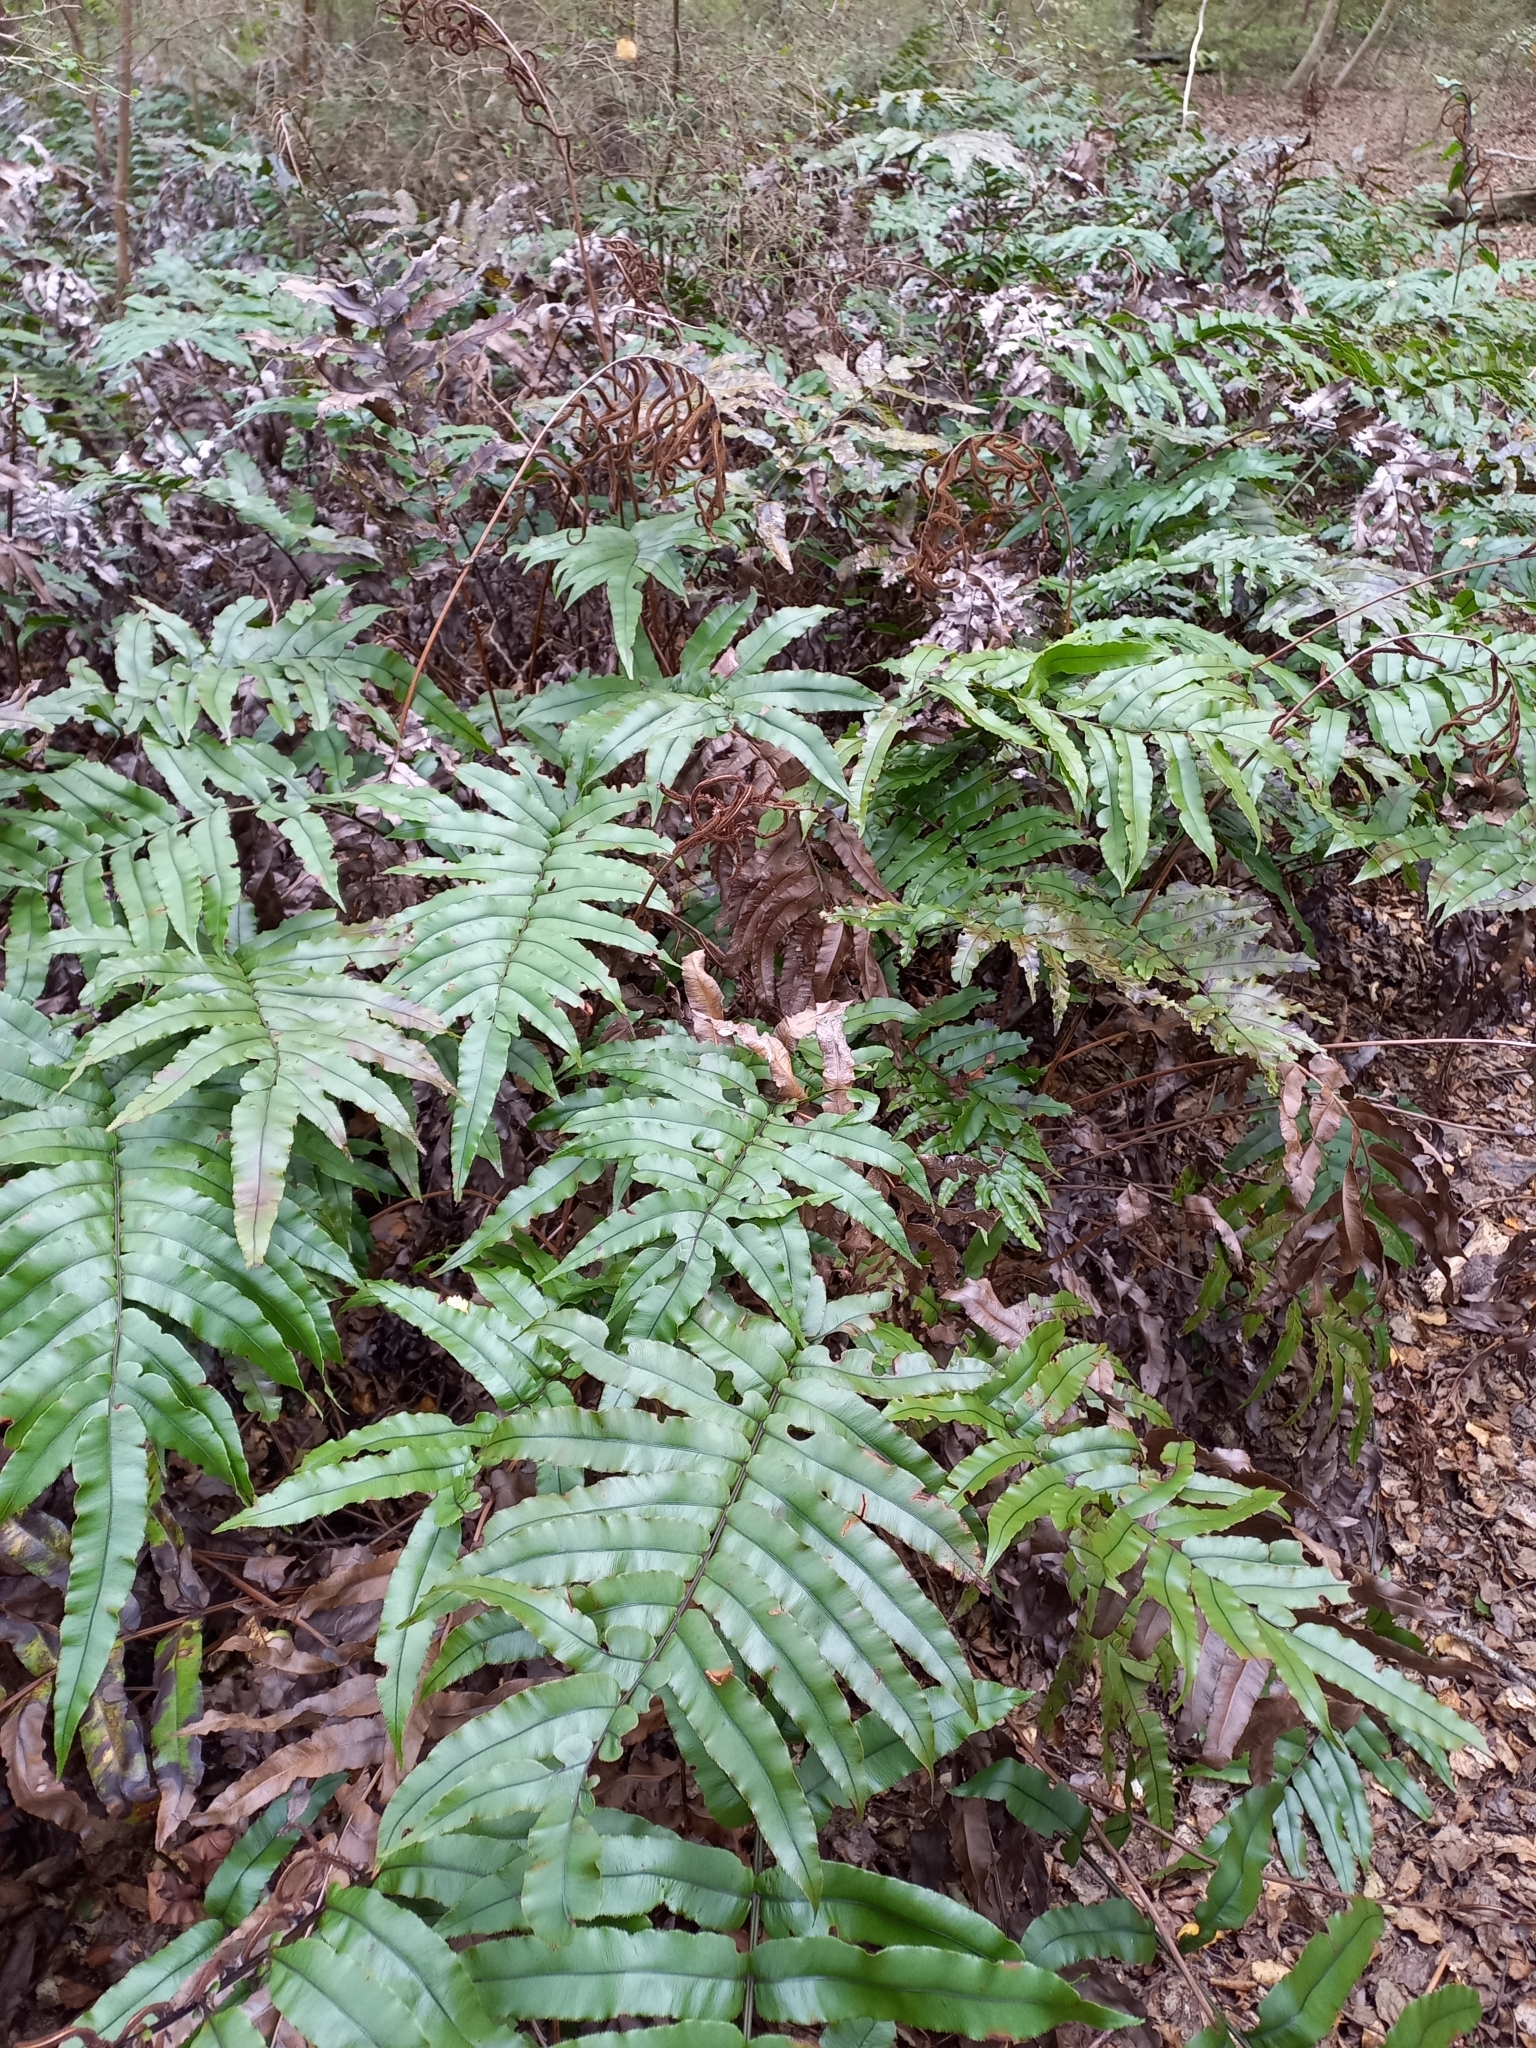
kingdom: Plantae
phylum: Tracheophyta
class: Polypodiopsida
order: Polypodiales
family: Blechnaceae
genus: Parablechnum
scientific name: Parablechnum procerum
